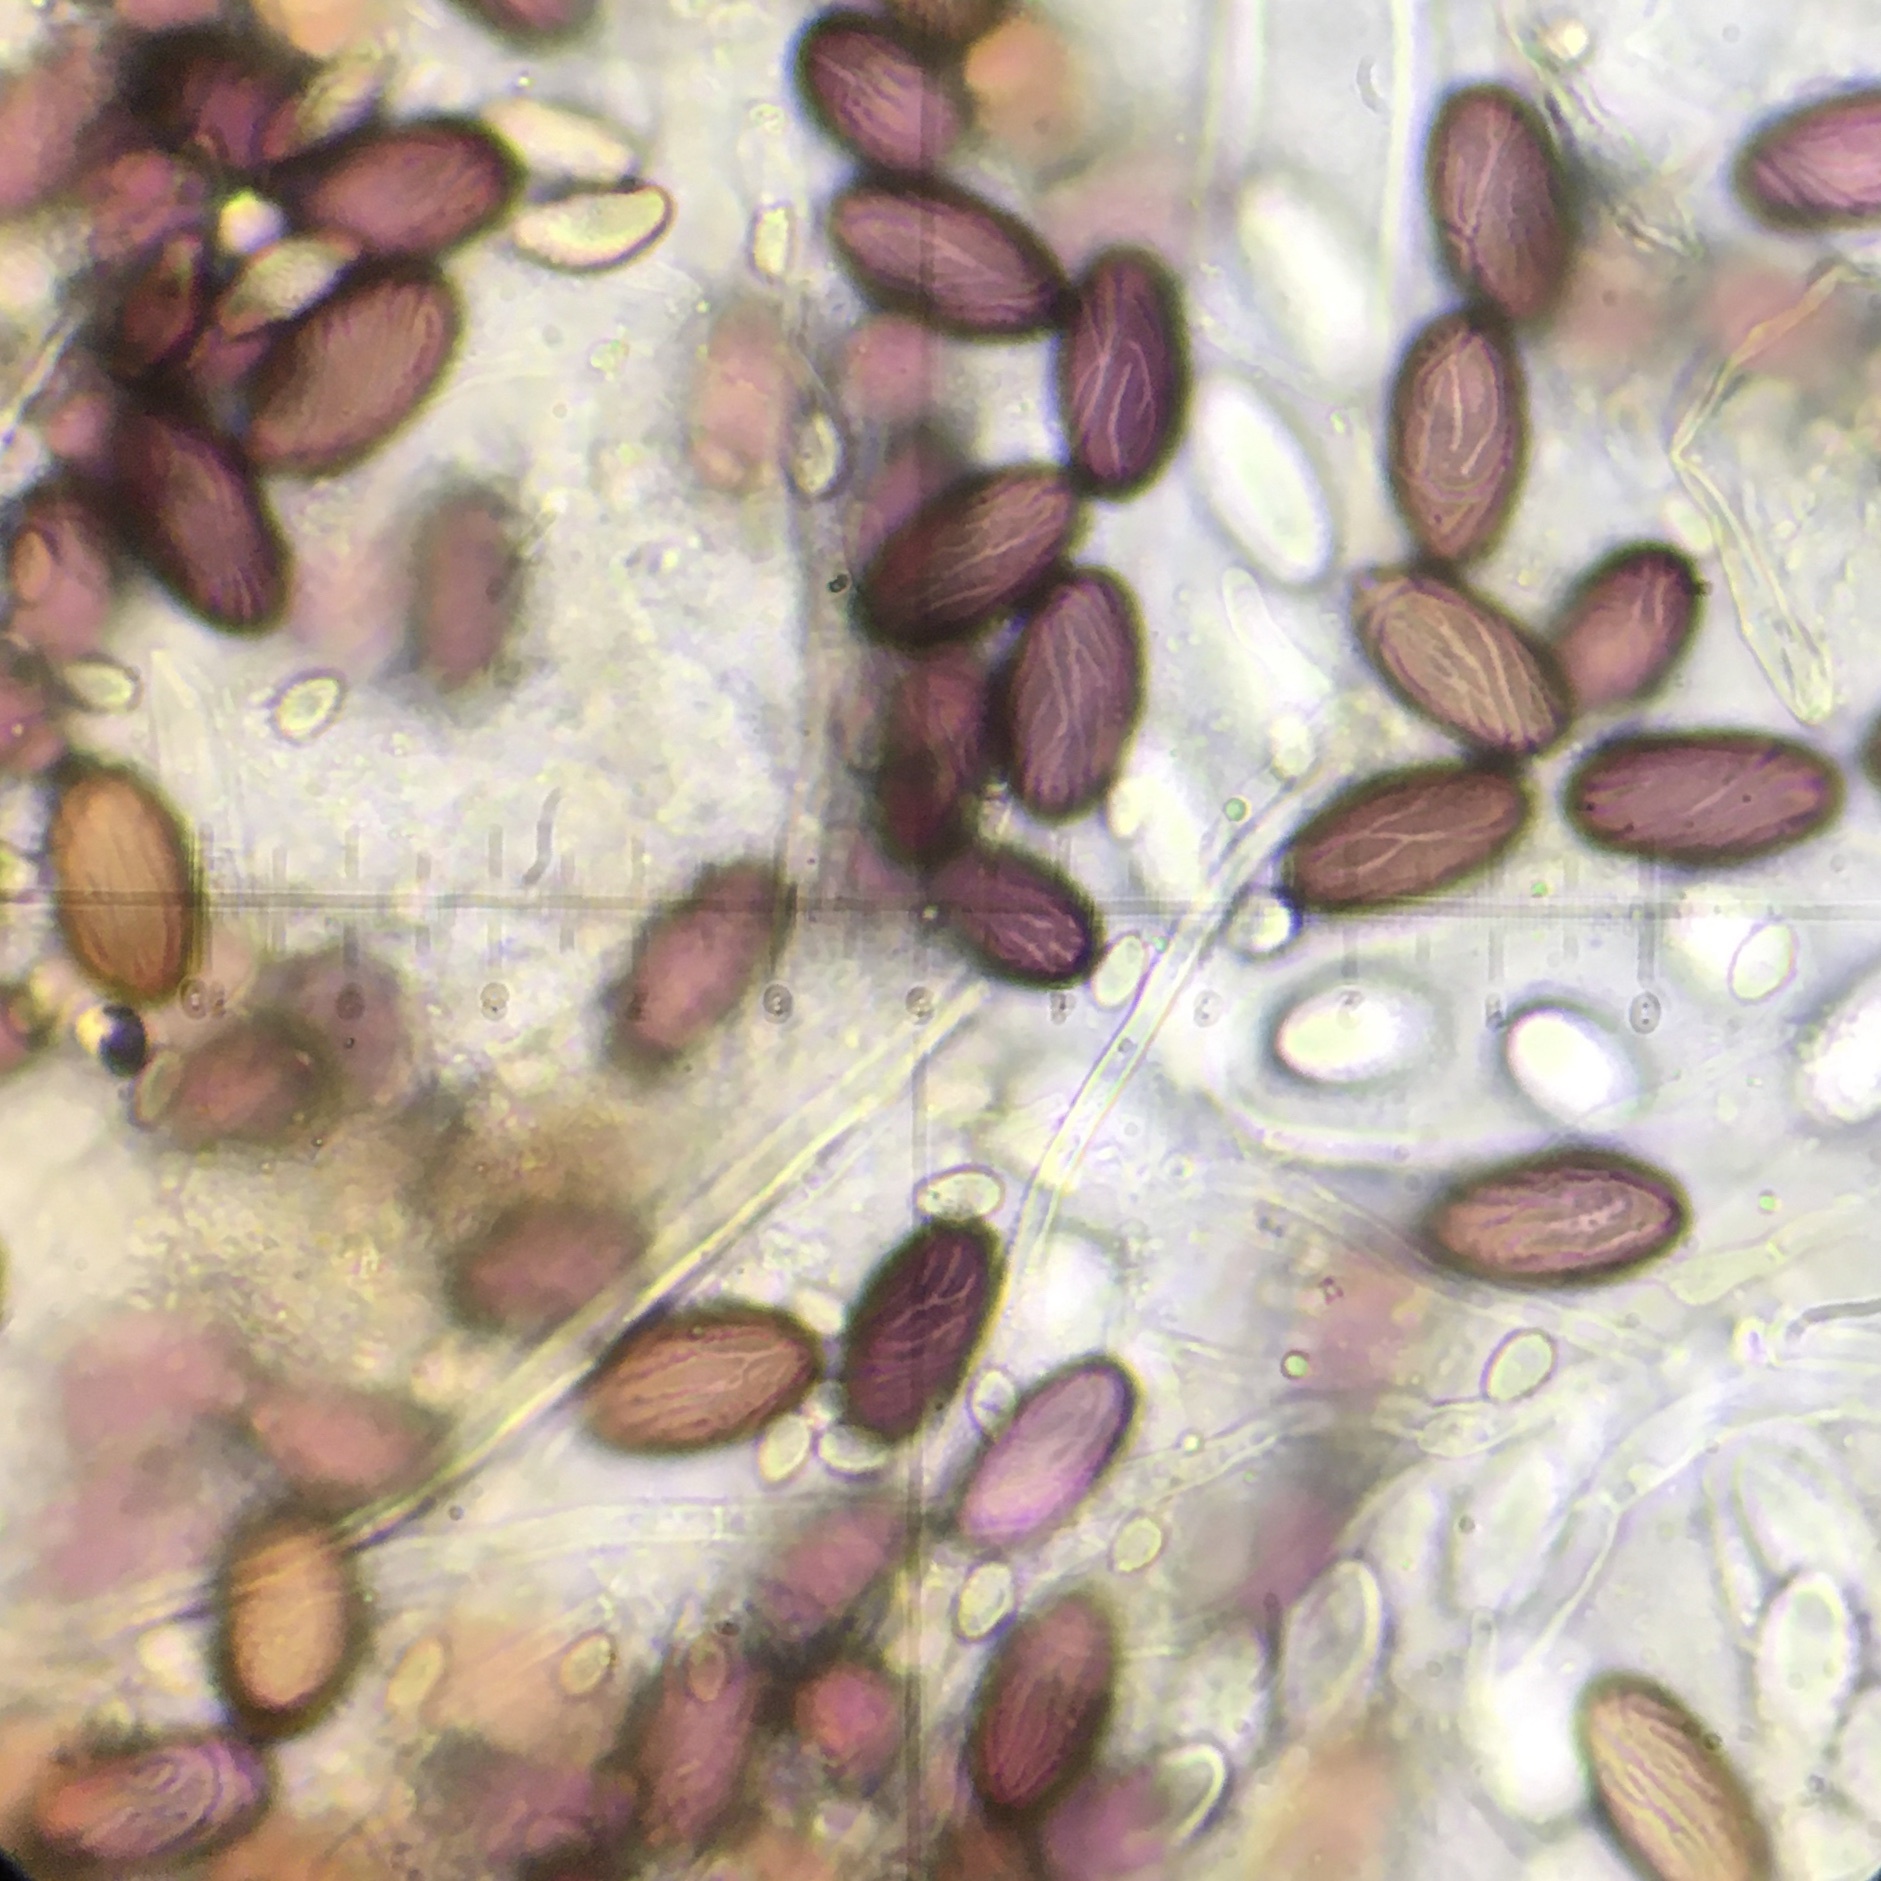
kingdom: Fungi
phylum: Ascomycota
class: Pezizomycetes
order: Pezizales
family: Ascobolaceae
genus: Ascobolus
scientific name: Ascobolus furfuraceus
